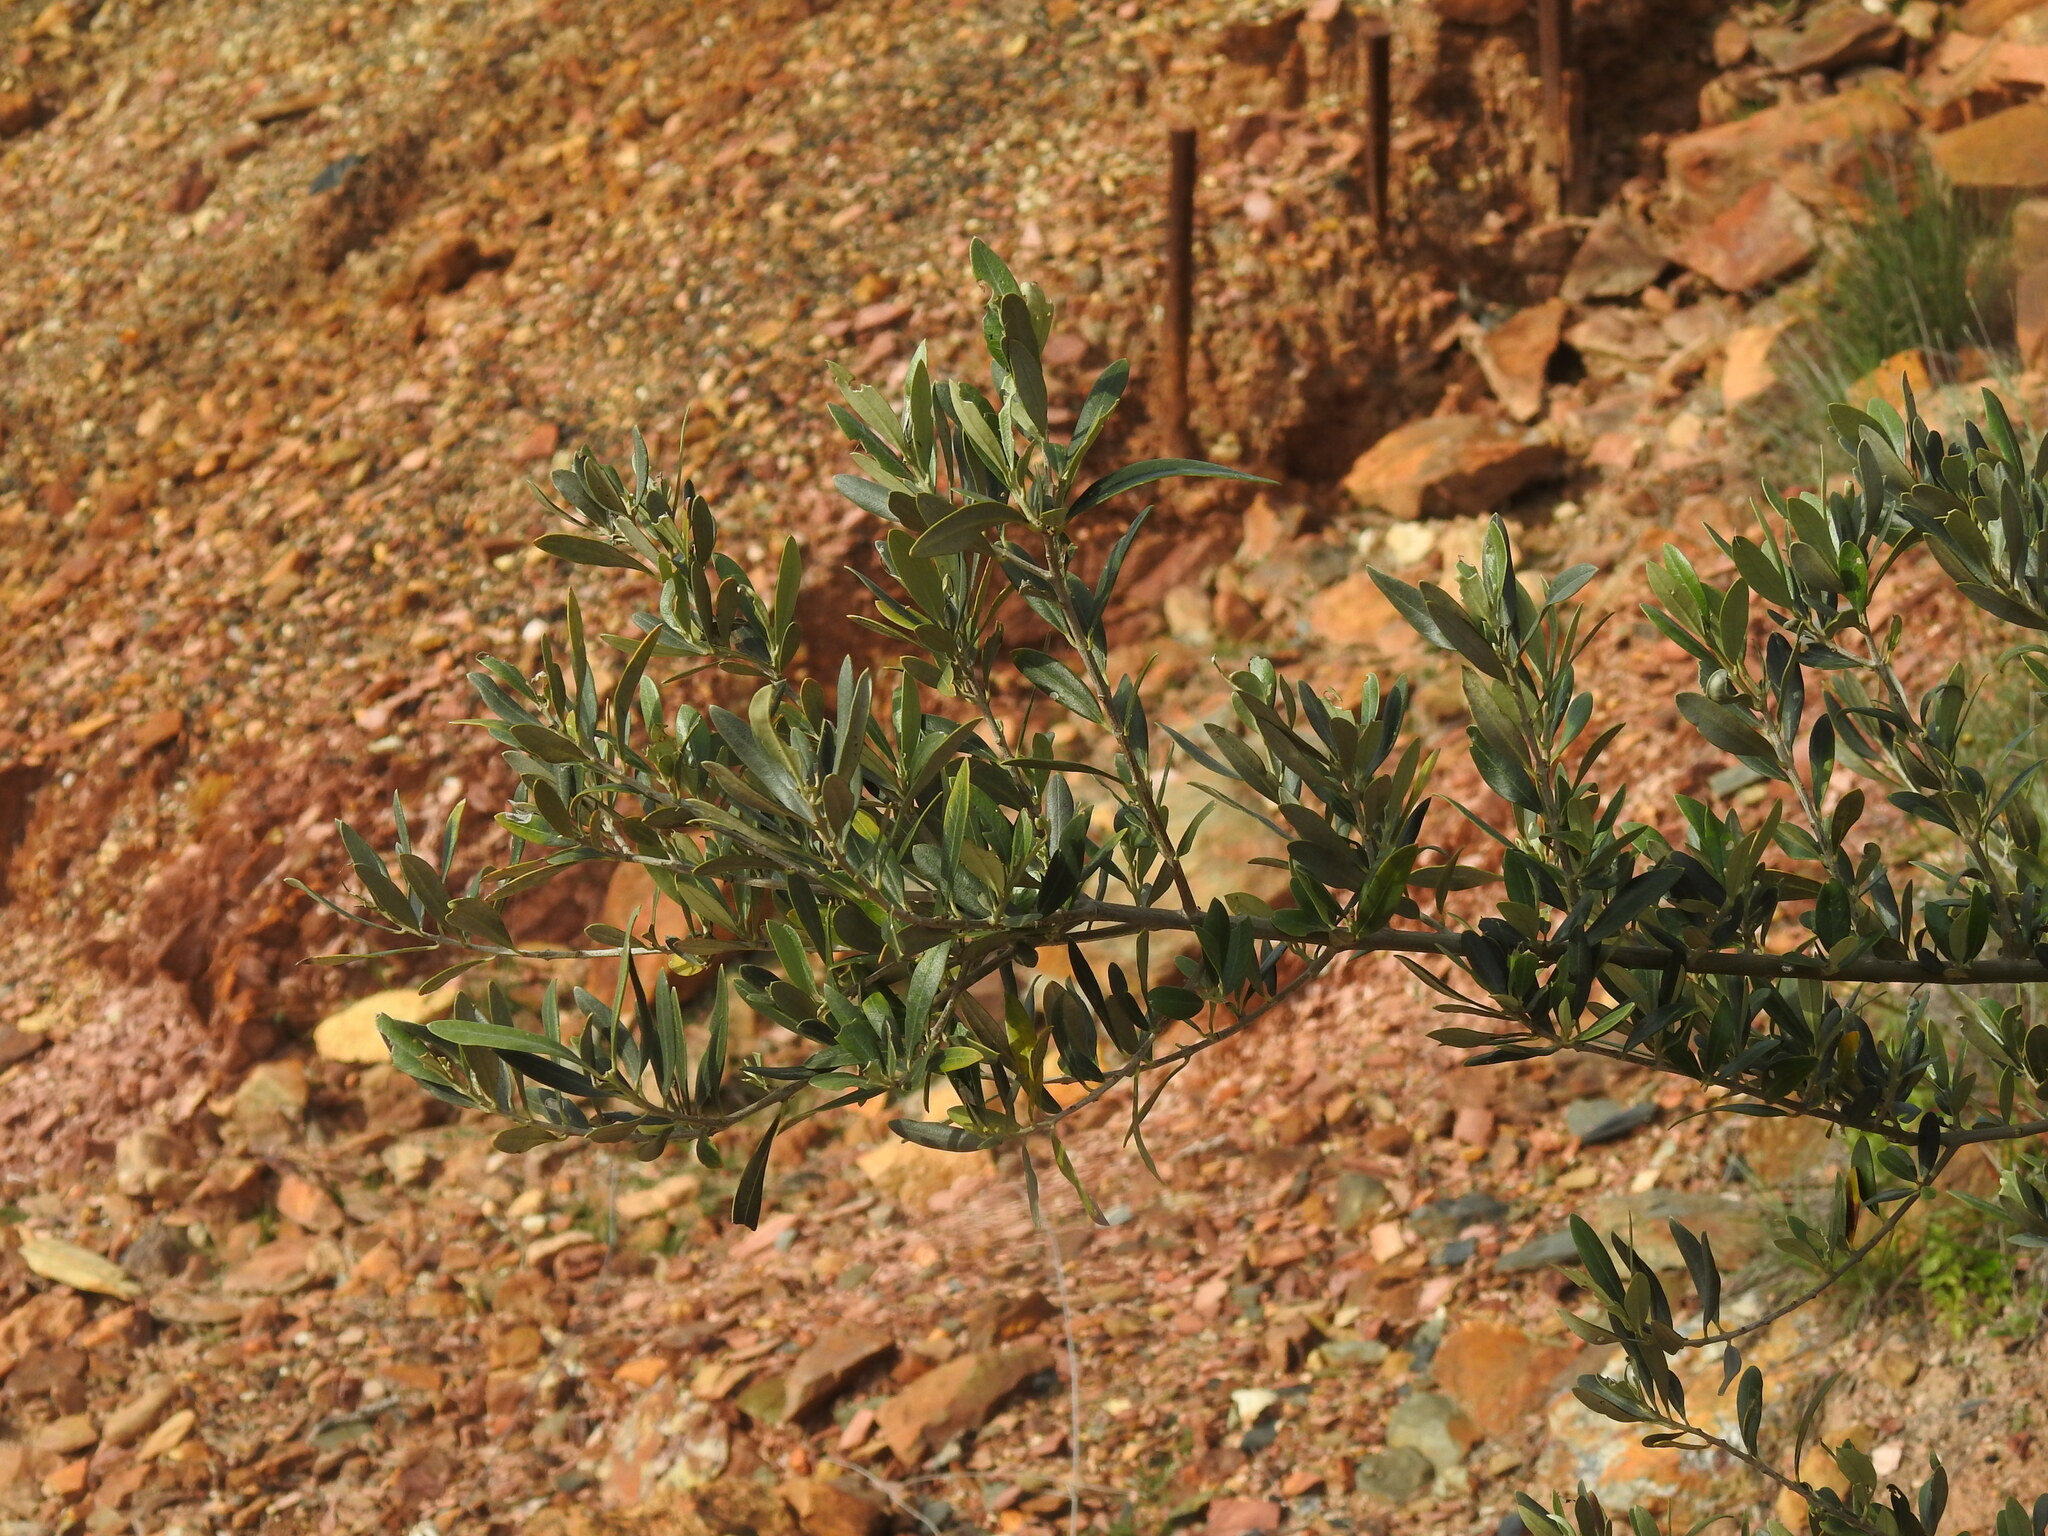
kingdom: Plantae
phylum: Tracheophyta
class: Magnoliopsida
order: Lamiales
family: Oleaceae
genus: Olea
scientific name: Olea europaea
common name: Olive
